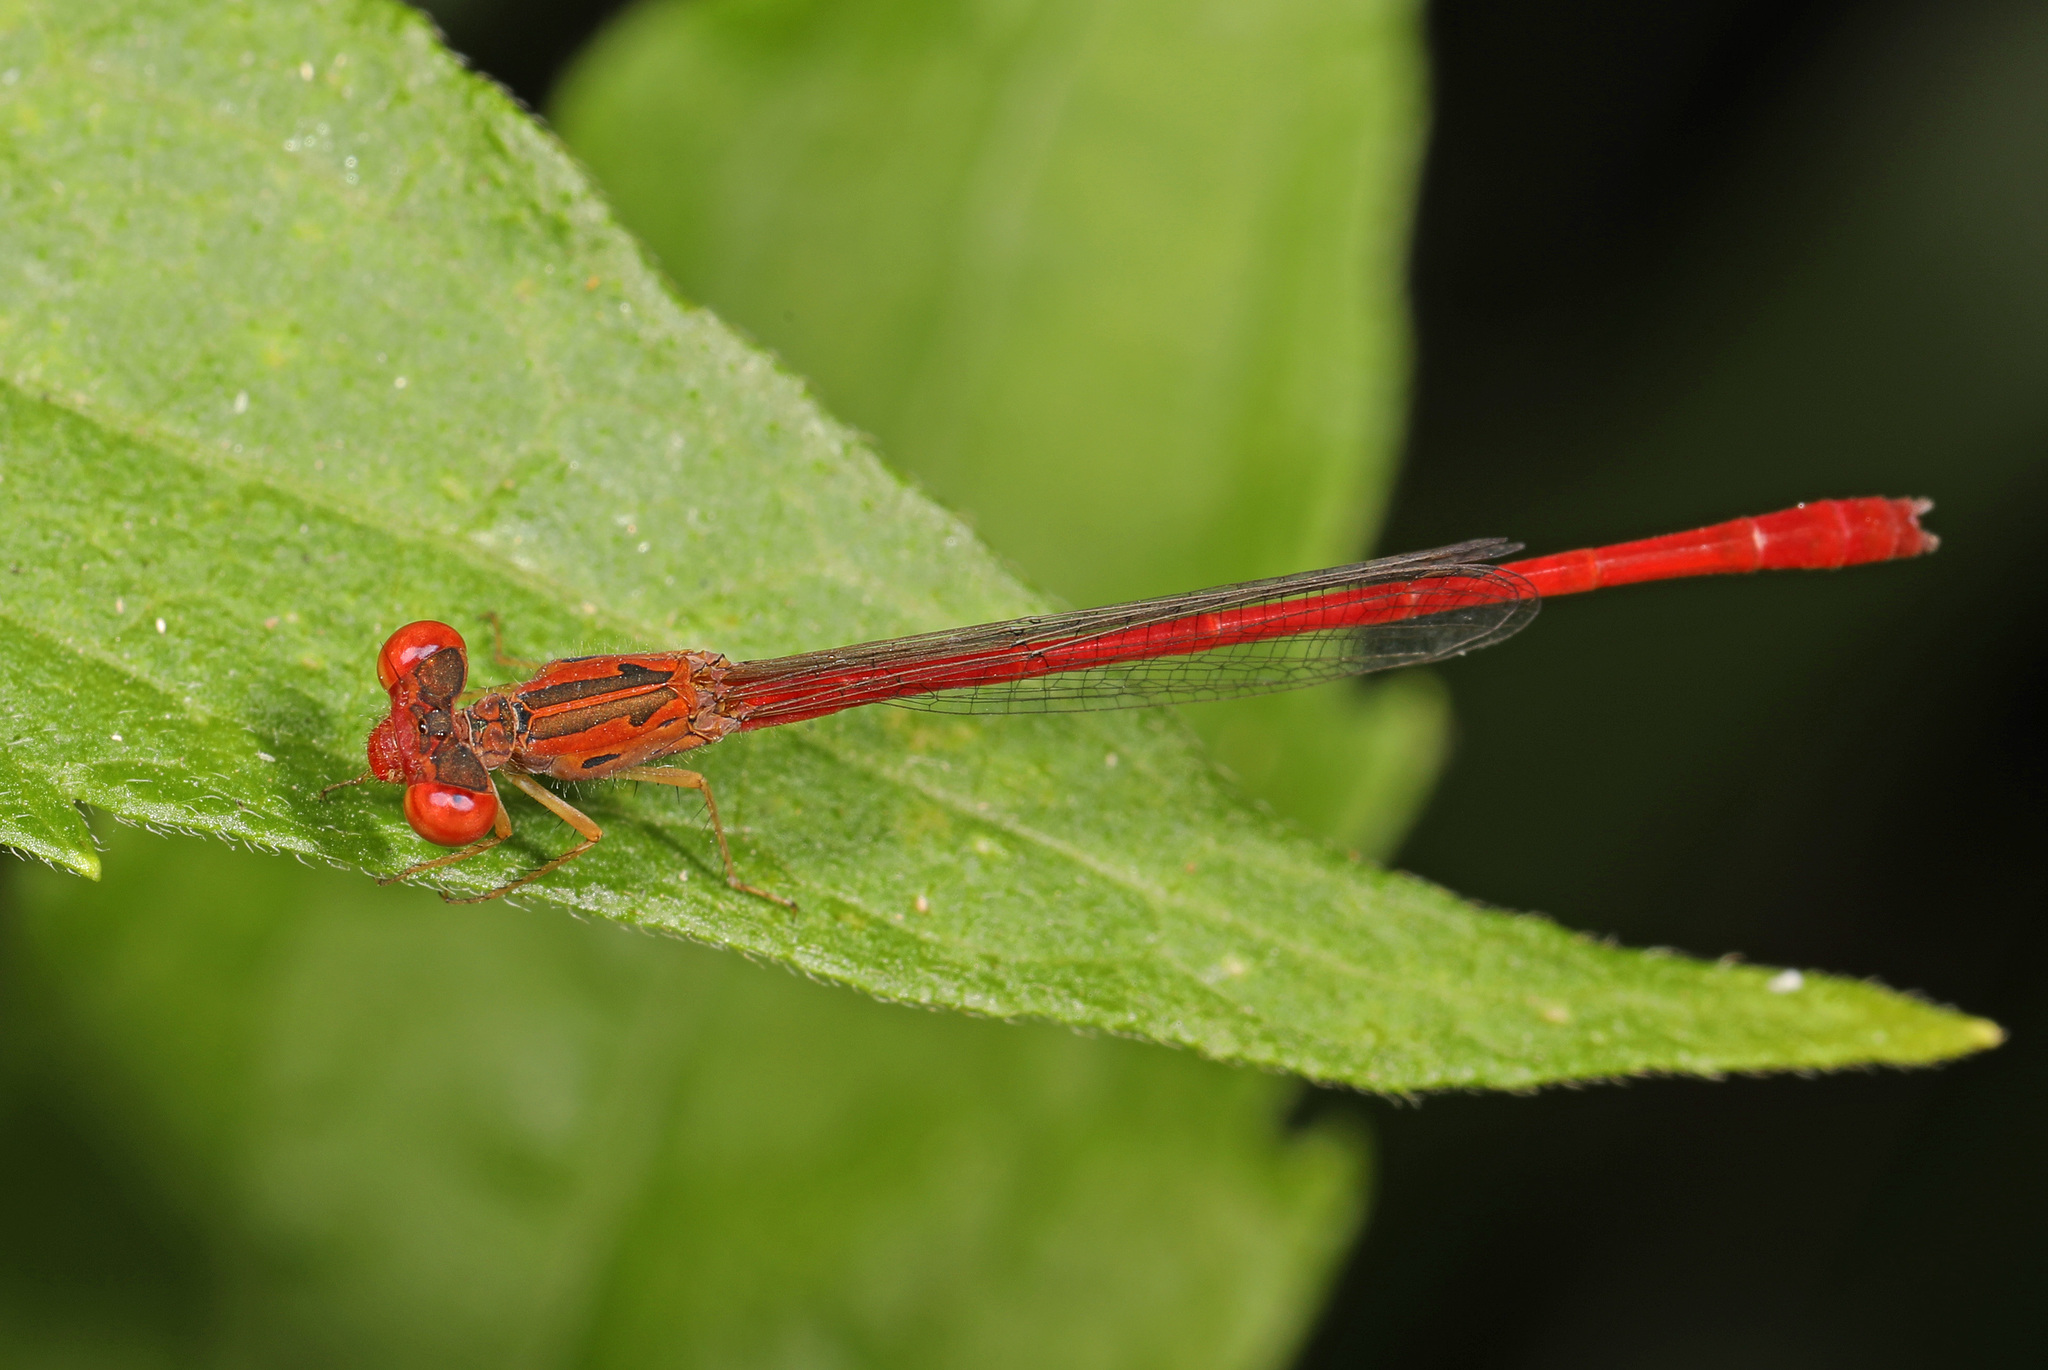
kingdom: Animalia
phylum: Arthropoda
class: Insecta
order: Odonata
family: Coenagrionidae
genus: Telebasis
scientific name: Telebasis salva
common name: Desert firetail
